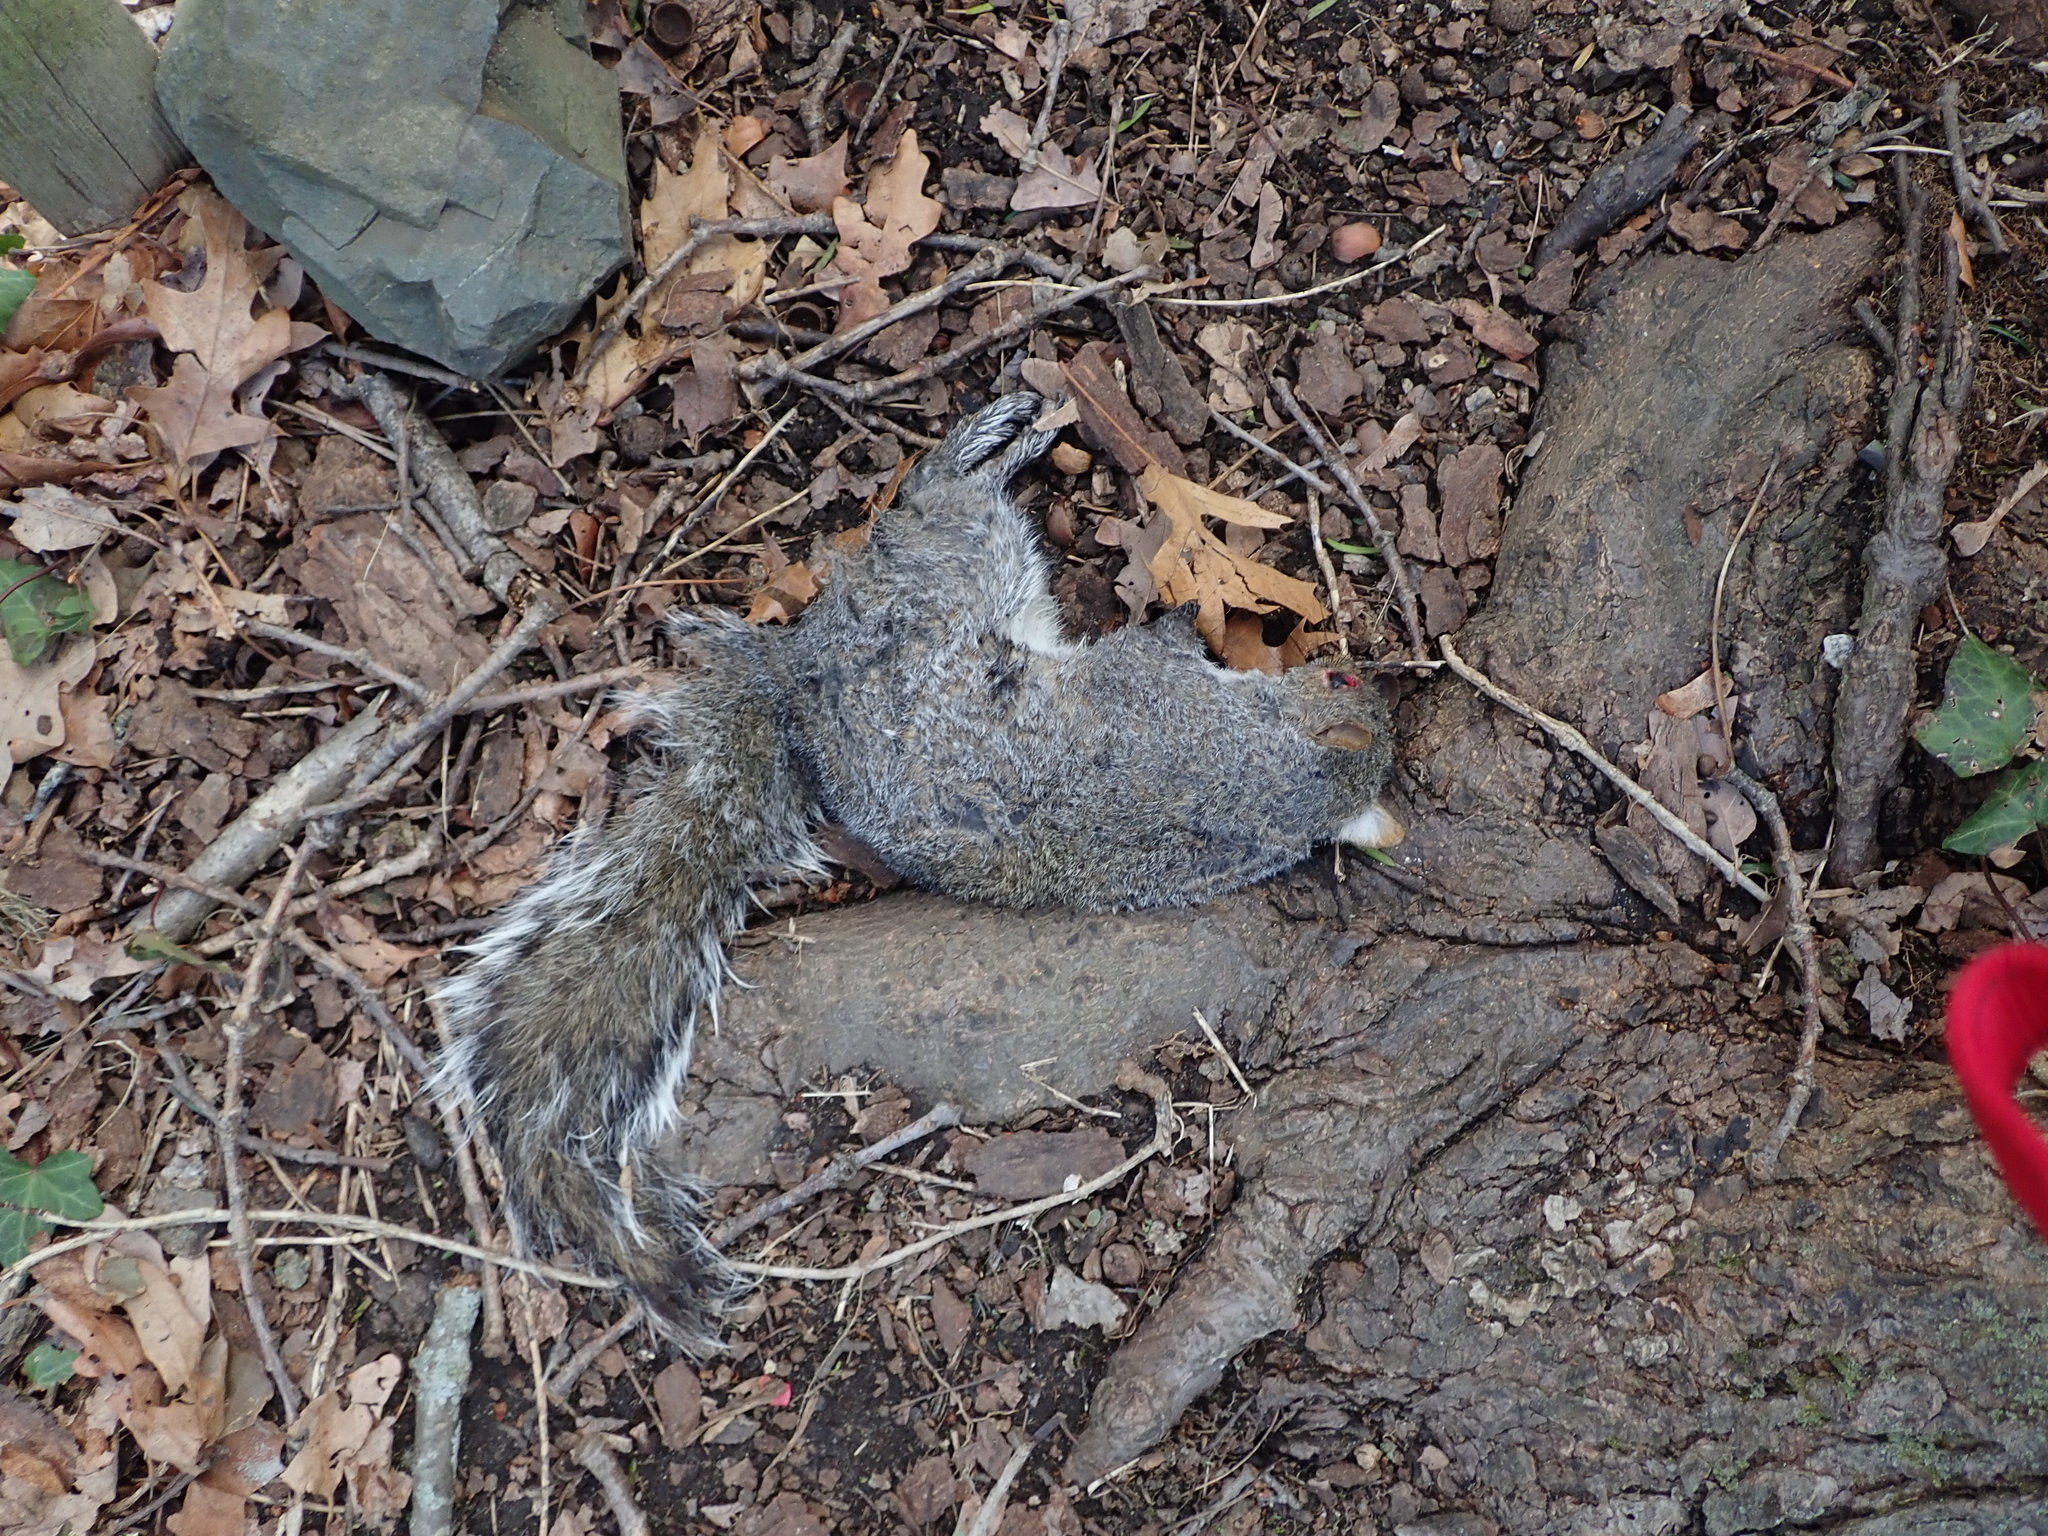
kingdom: Animalia
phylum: Chordata
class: Mammalia
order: Rodentia
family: Sciuridae
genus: Sciurus
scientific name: Sciurus carolinensis
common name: Eastern gray squirrel
